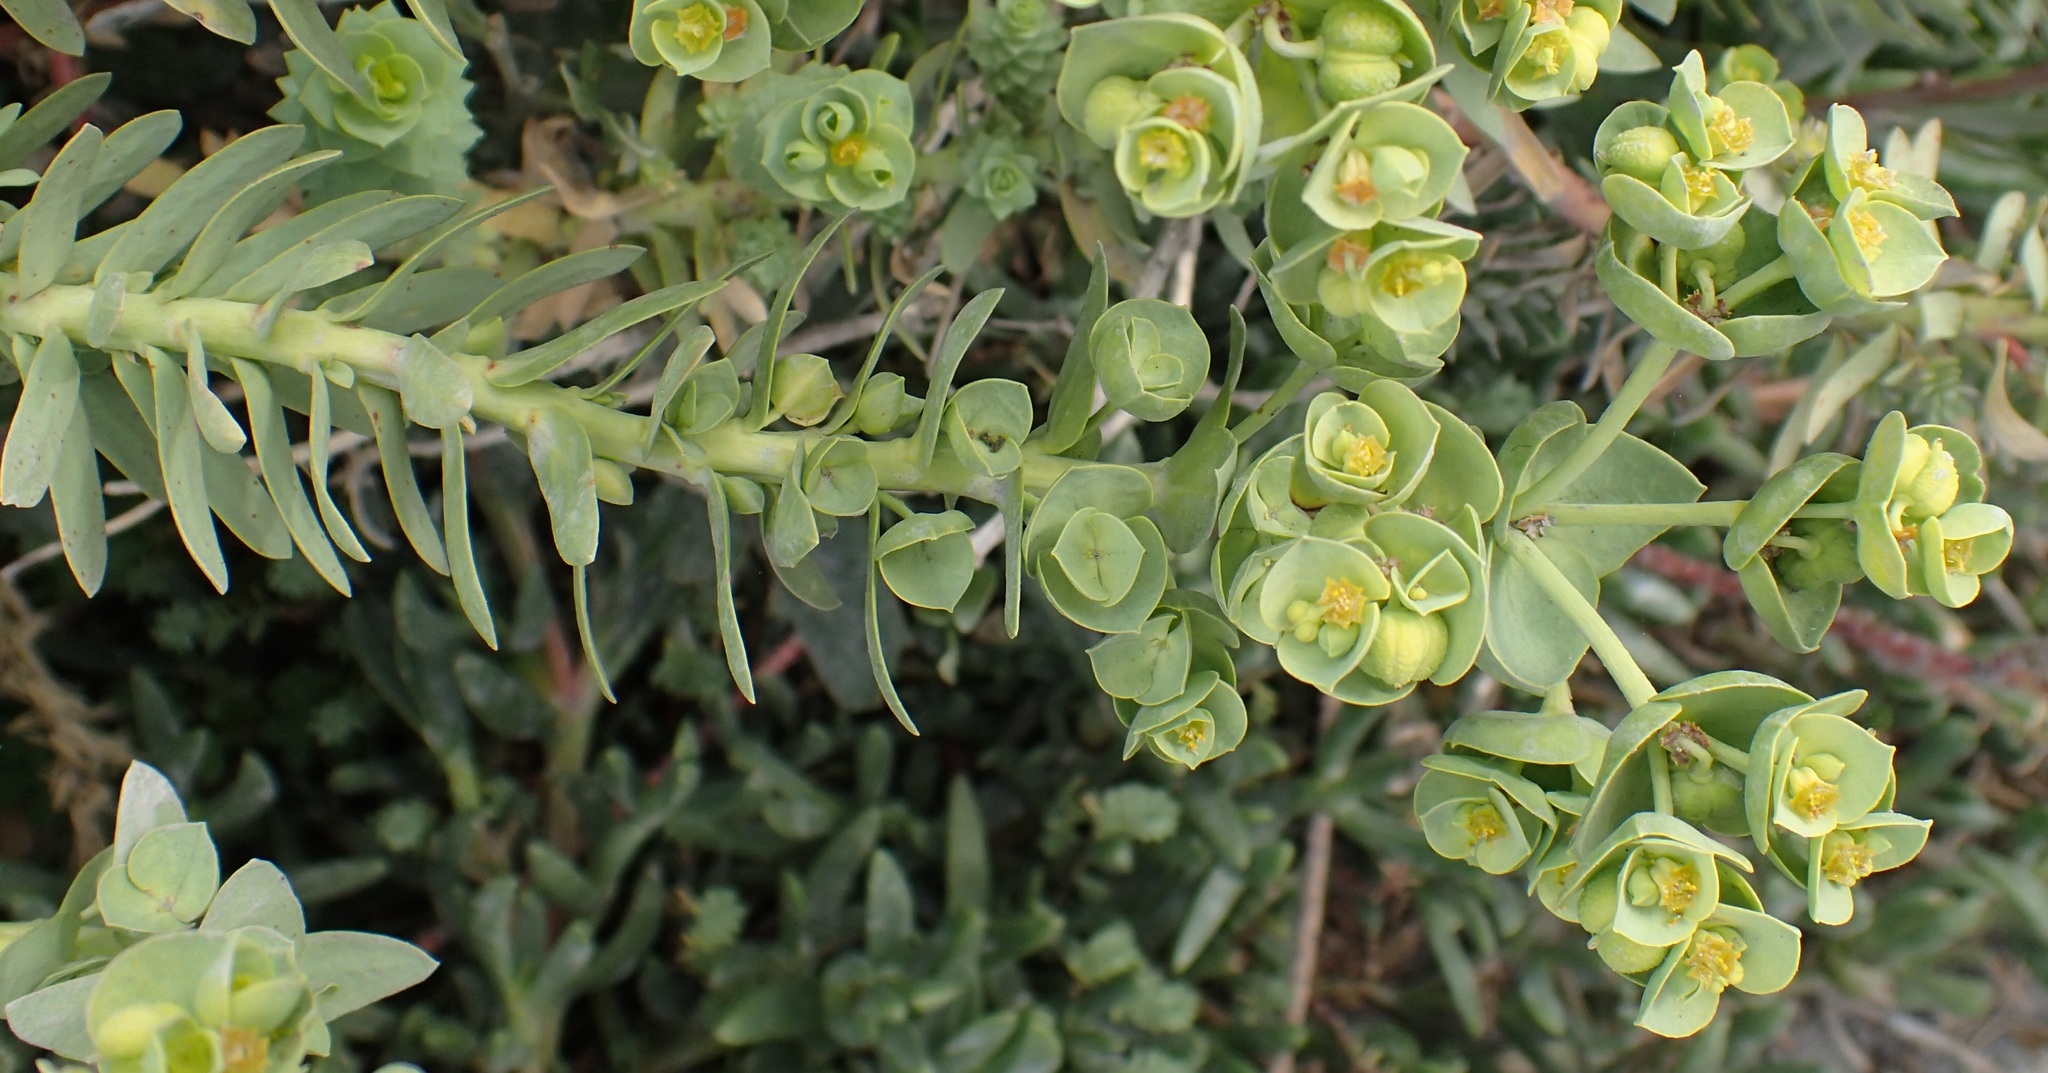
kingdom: Plantae
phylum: Tracheophyta
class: Magnoliopsida
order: Malpighiales
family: Euphorbiaceae
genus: Euphorbia
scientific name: Euphorbia paralias
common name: Sea spurge
